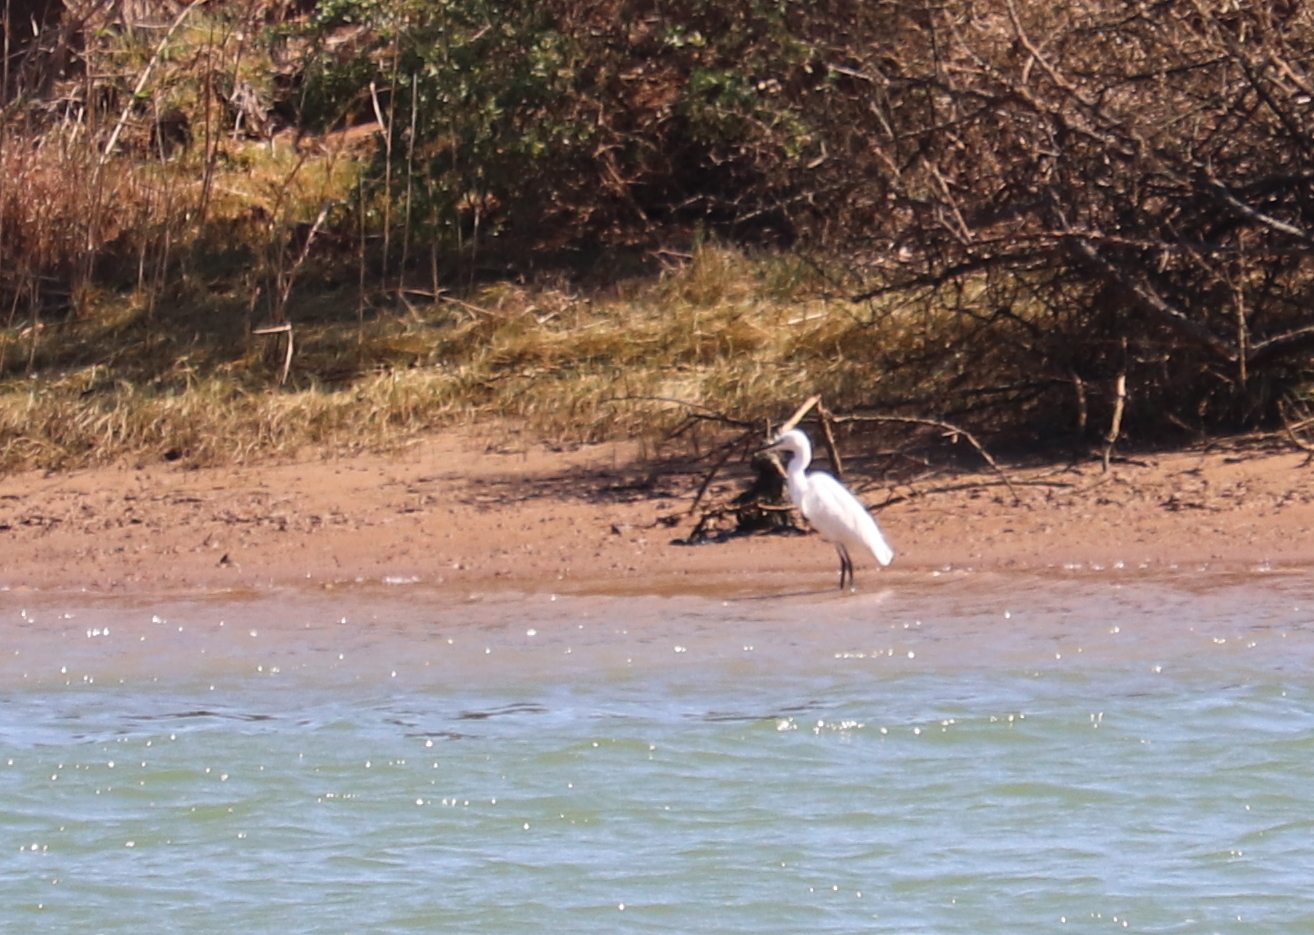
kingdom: Animalia
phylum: Chordata
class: Aves
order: Pelecaniformes
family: Ardeidae
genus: Egretta
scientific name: Egretta garzetta
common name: Little egret
